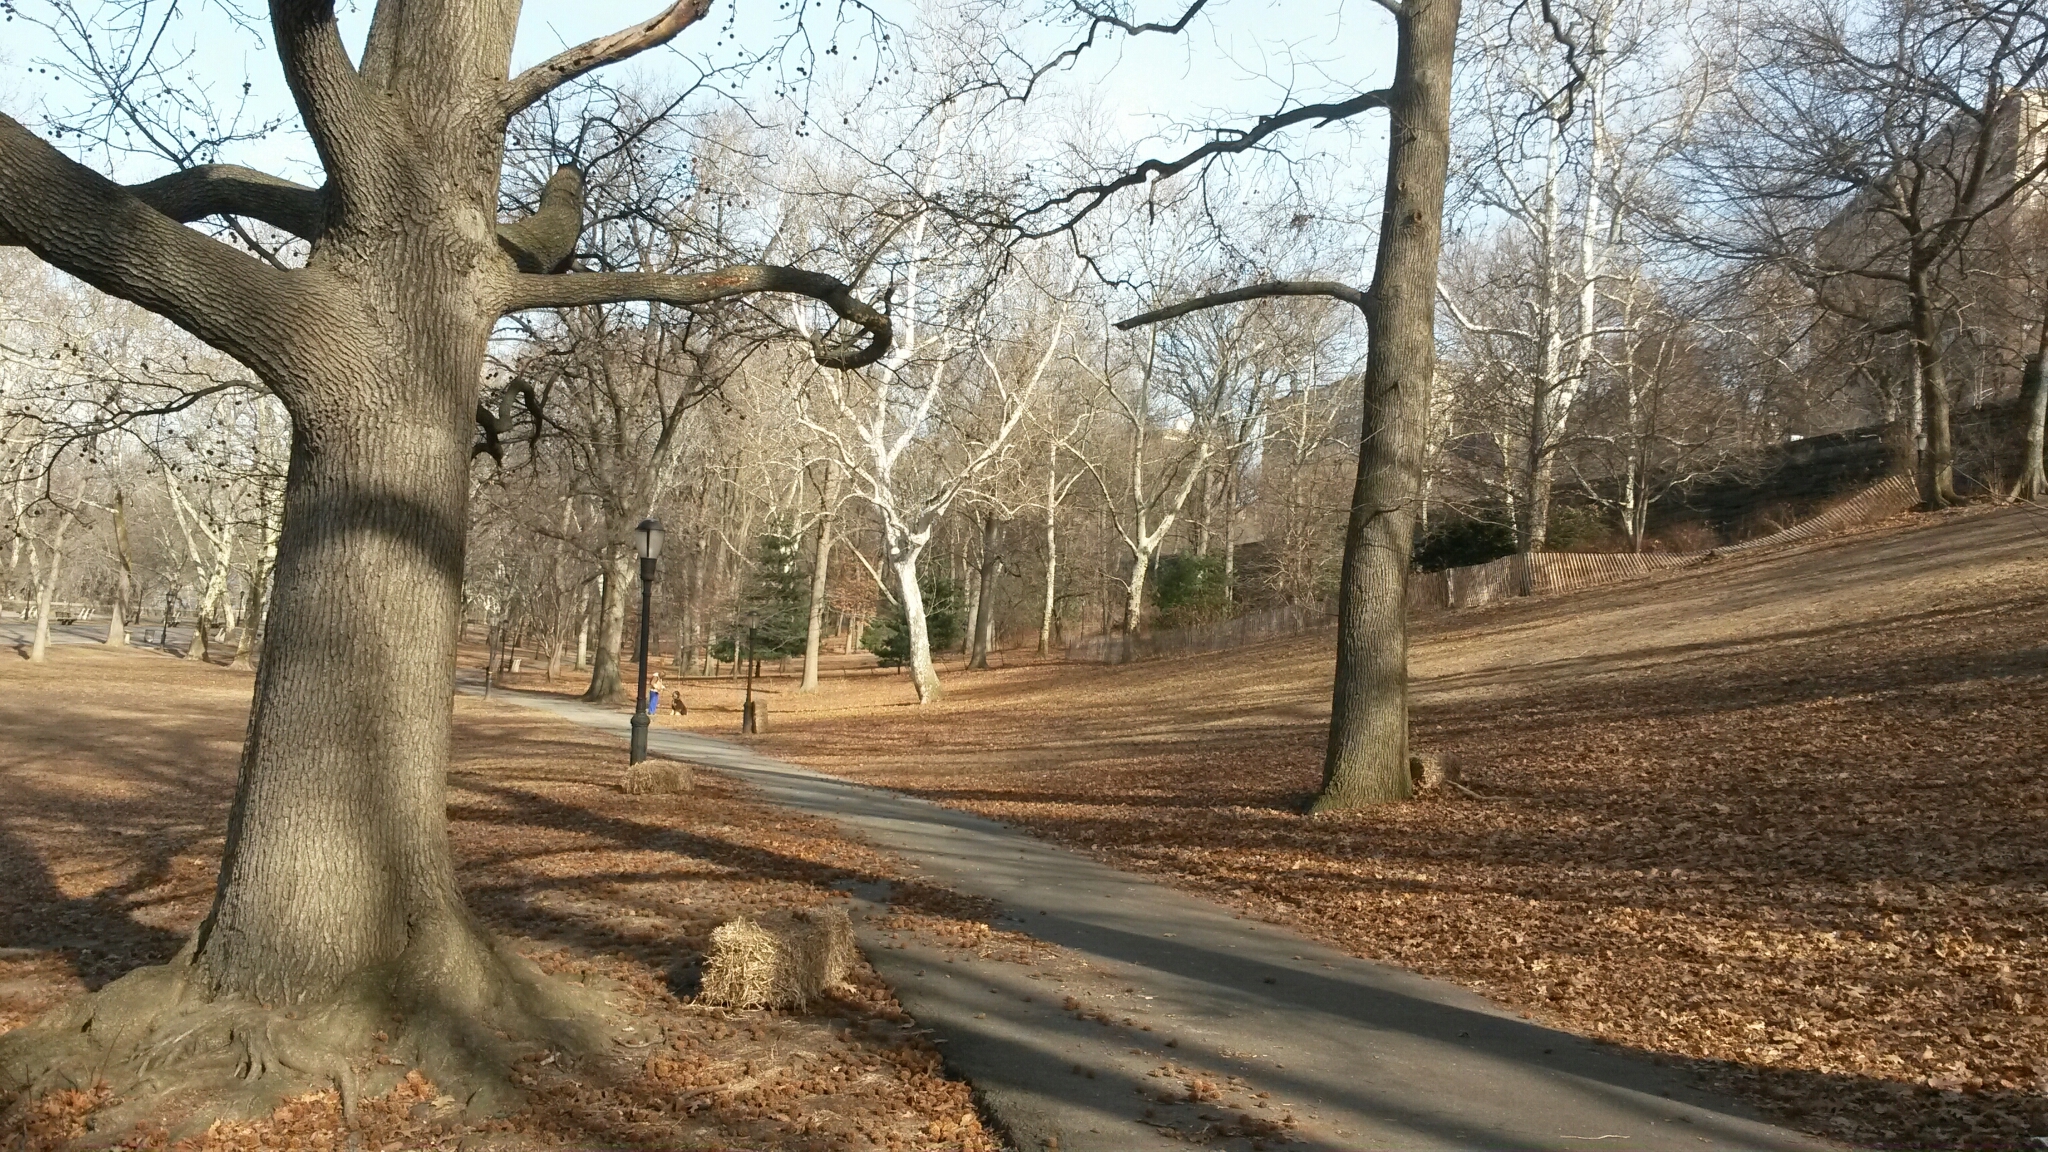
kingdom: Plantae
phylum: Tracheophyta
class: Magnoliopsida
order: Saxifragales
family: Altingiaceae
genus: Liquidambar
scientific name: Liquidambar styraciflua
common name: Sweet gum
